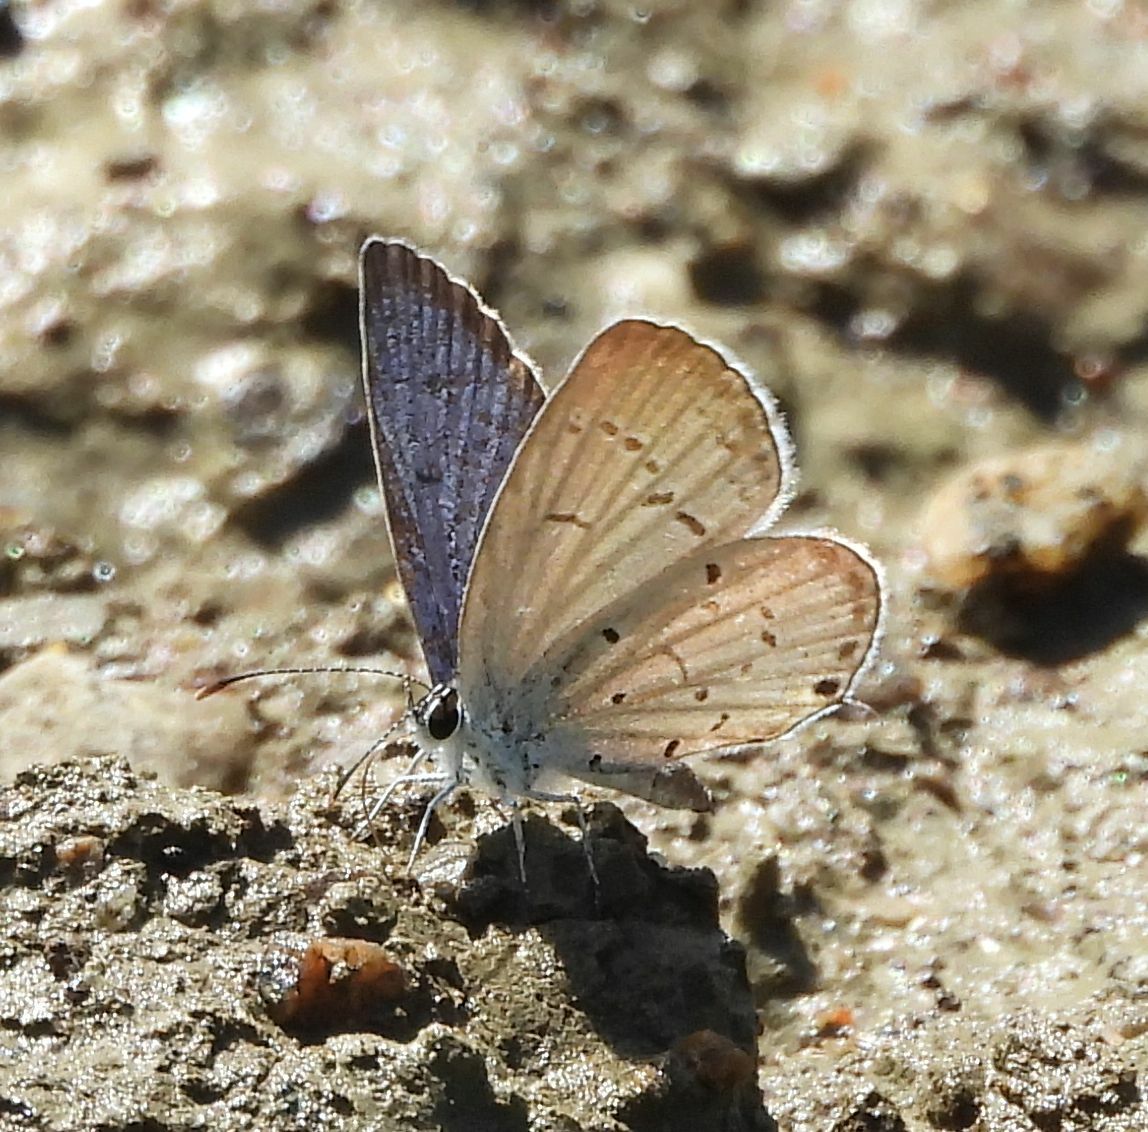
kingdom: Animalia
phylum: Arthropoda
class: Insecta
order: Lepidoptera
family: Lycaenidae
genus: Elkalyce
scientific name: Elkalyce comyntas
